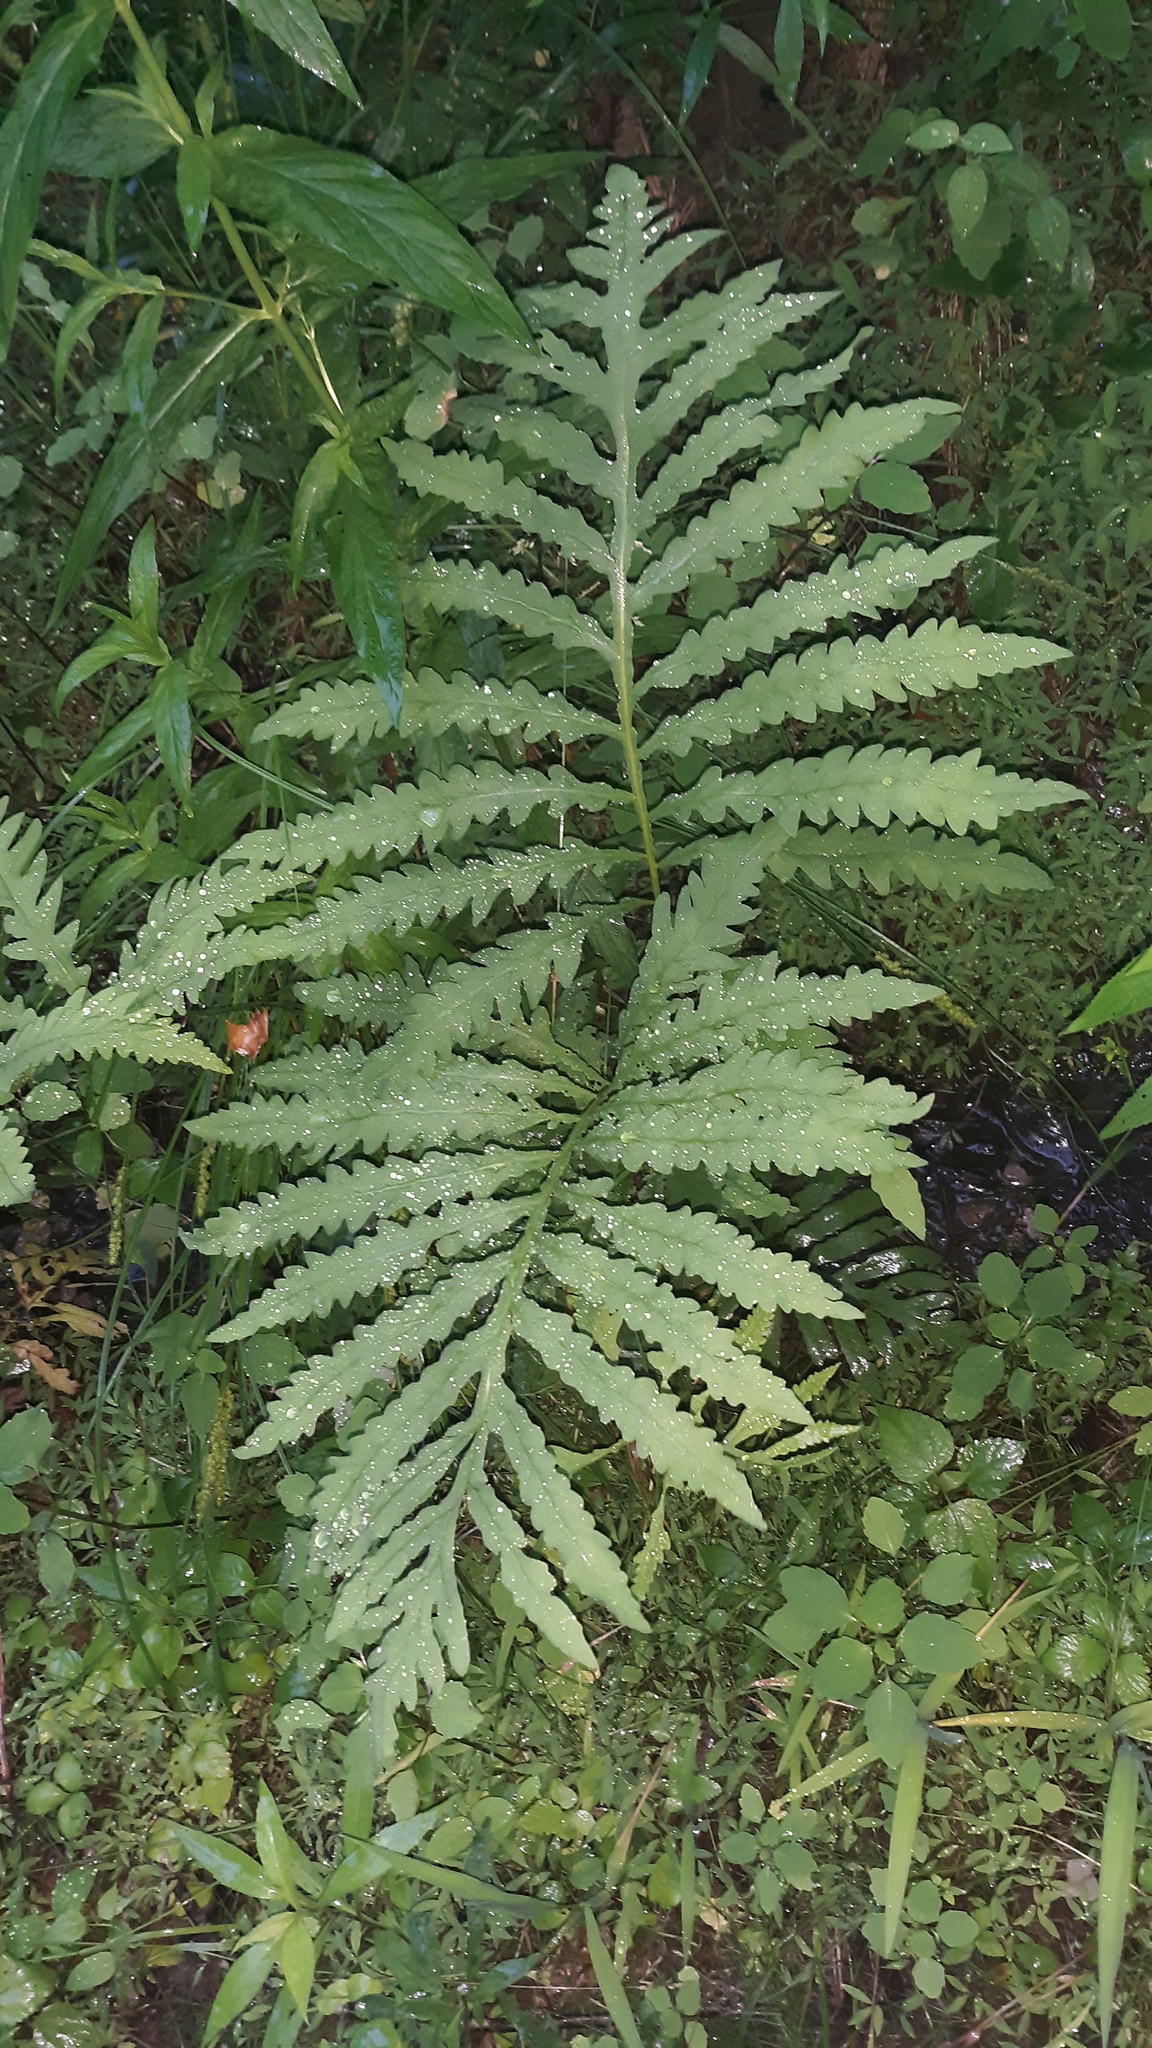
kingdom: Plantae
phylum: Tracheophyta
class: Polypodiopsida
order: Polypodiales
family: Onocleaceae
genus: Onoclea
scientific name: Onoclea sensibilis
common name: Sensitive fern
